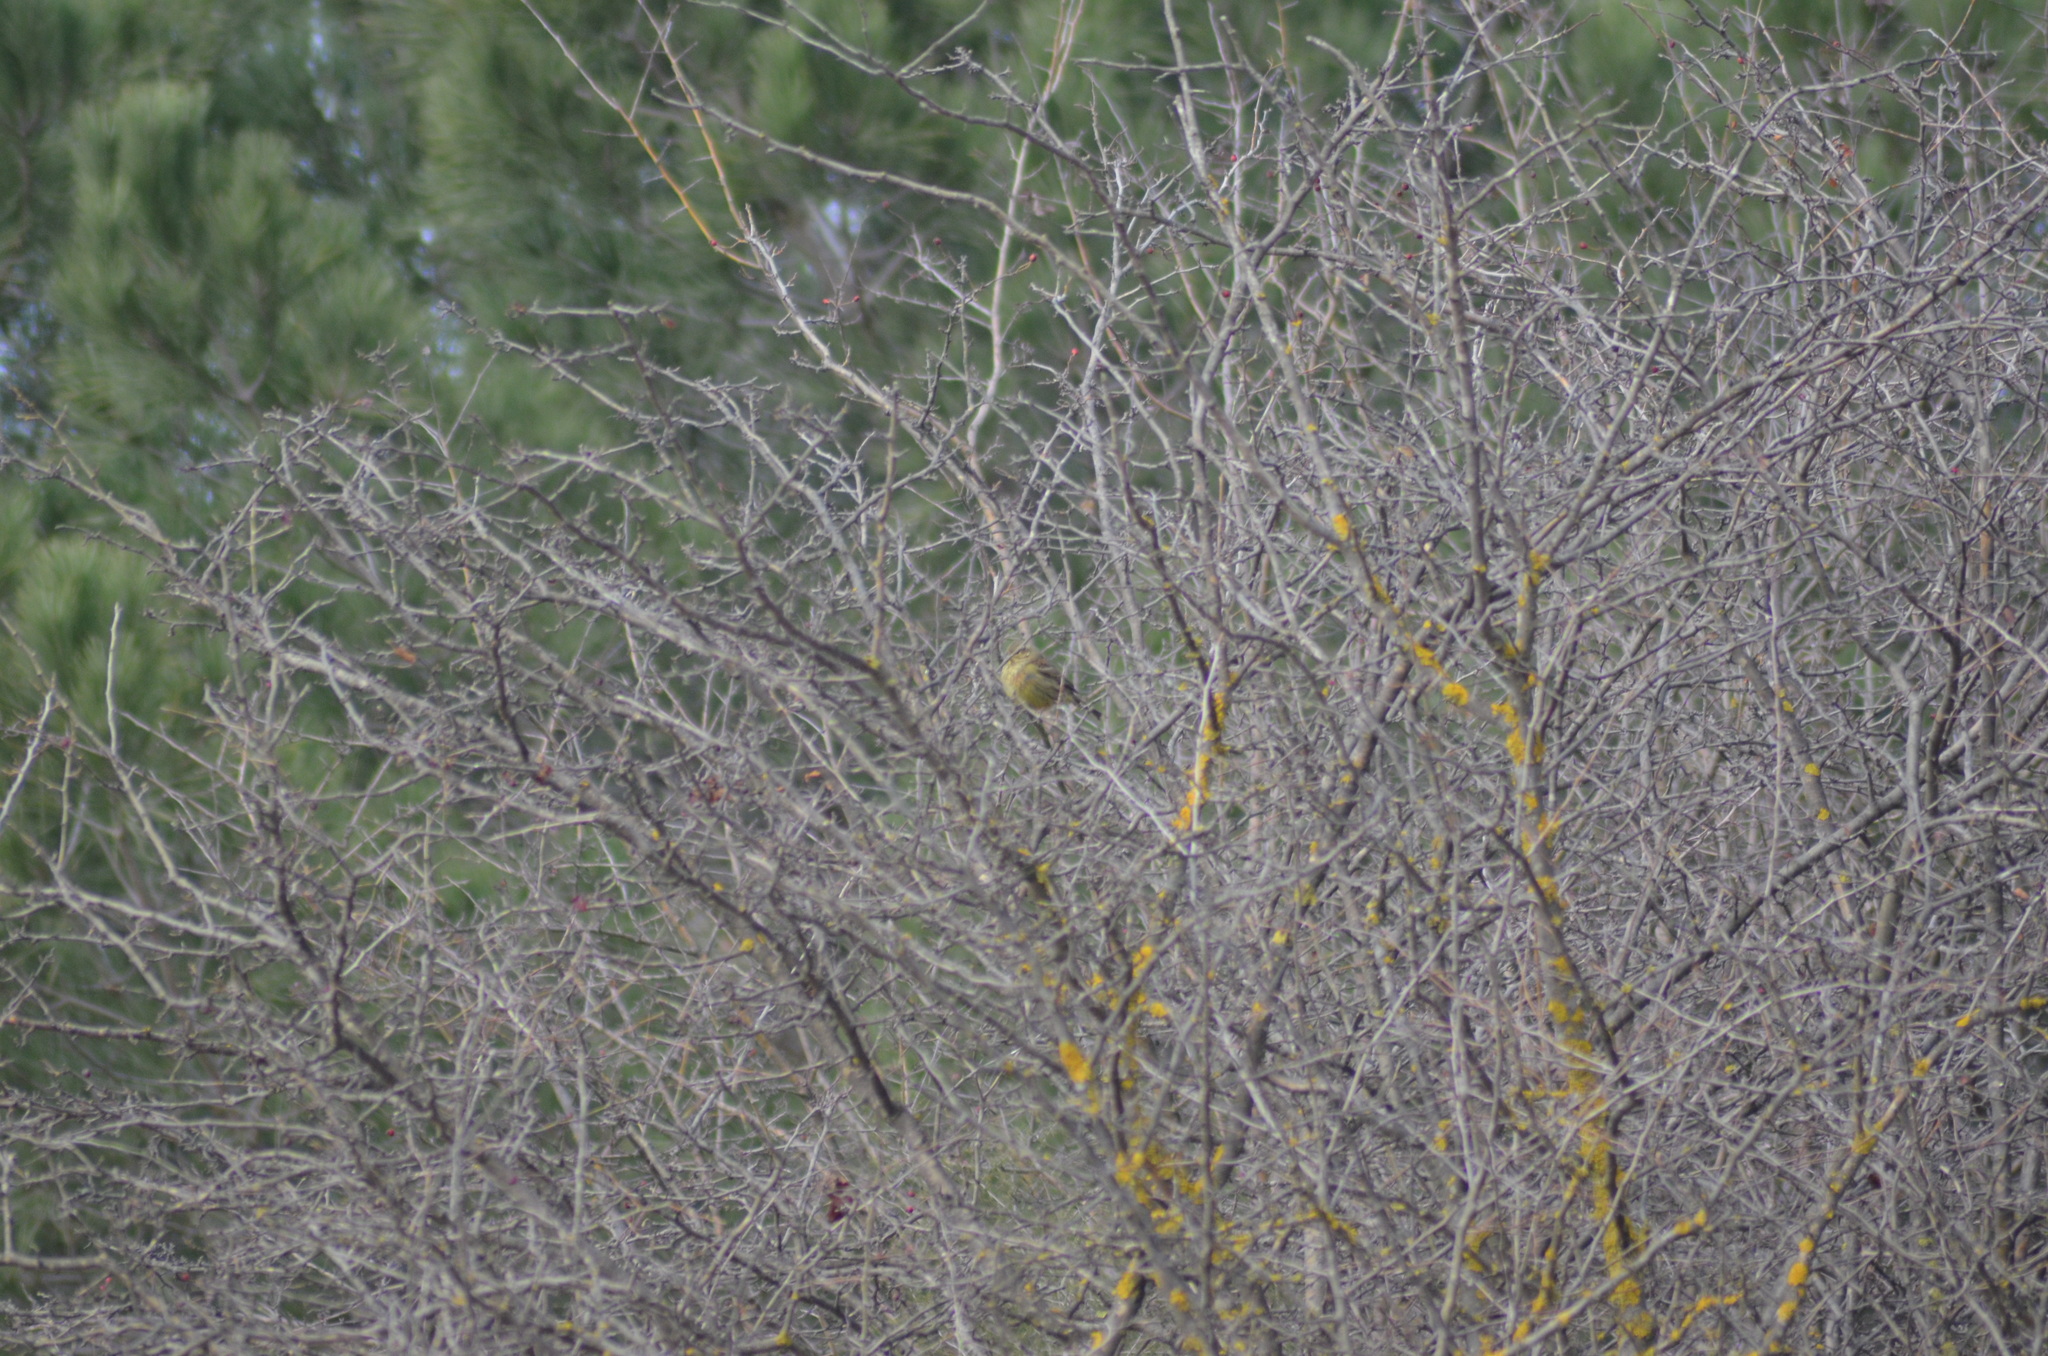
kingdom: Animalia
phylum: Chordata
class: Aves
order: Passeriformes
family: Emberizidae
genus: Emberiza
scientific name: Emberiza cirlus
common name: Cirl bunting
